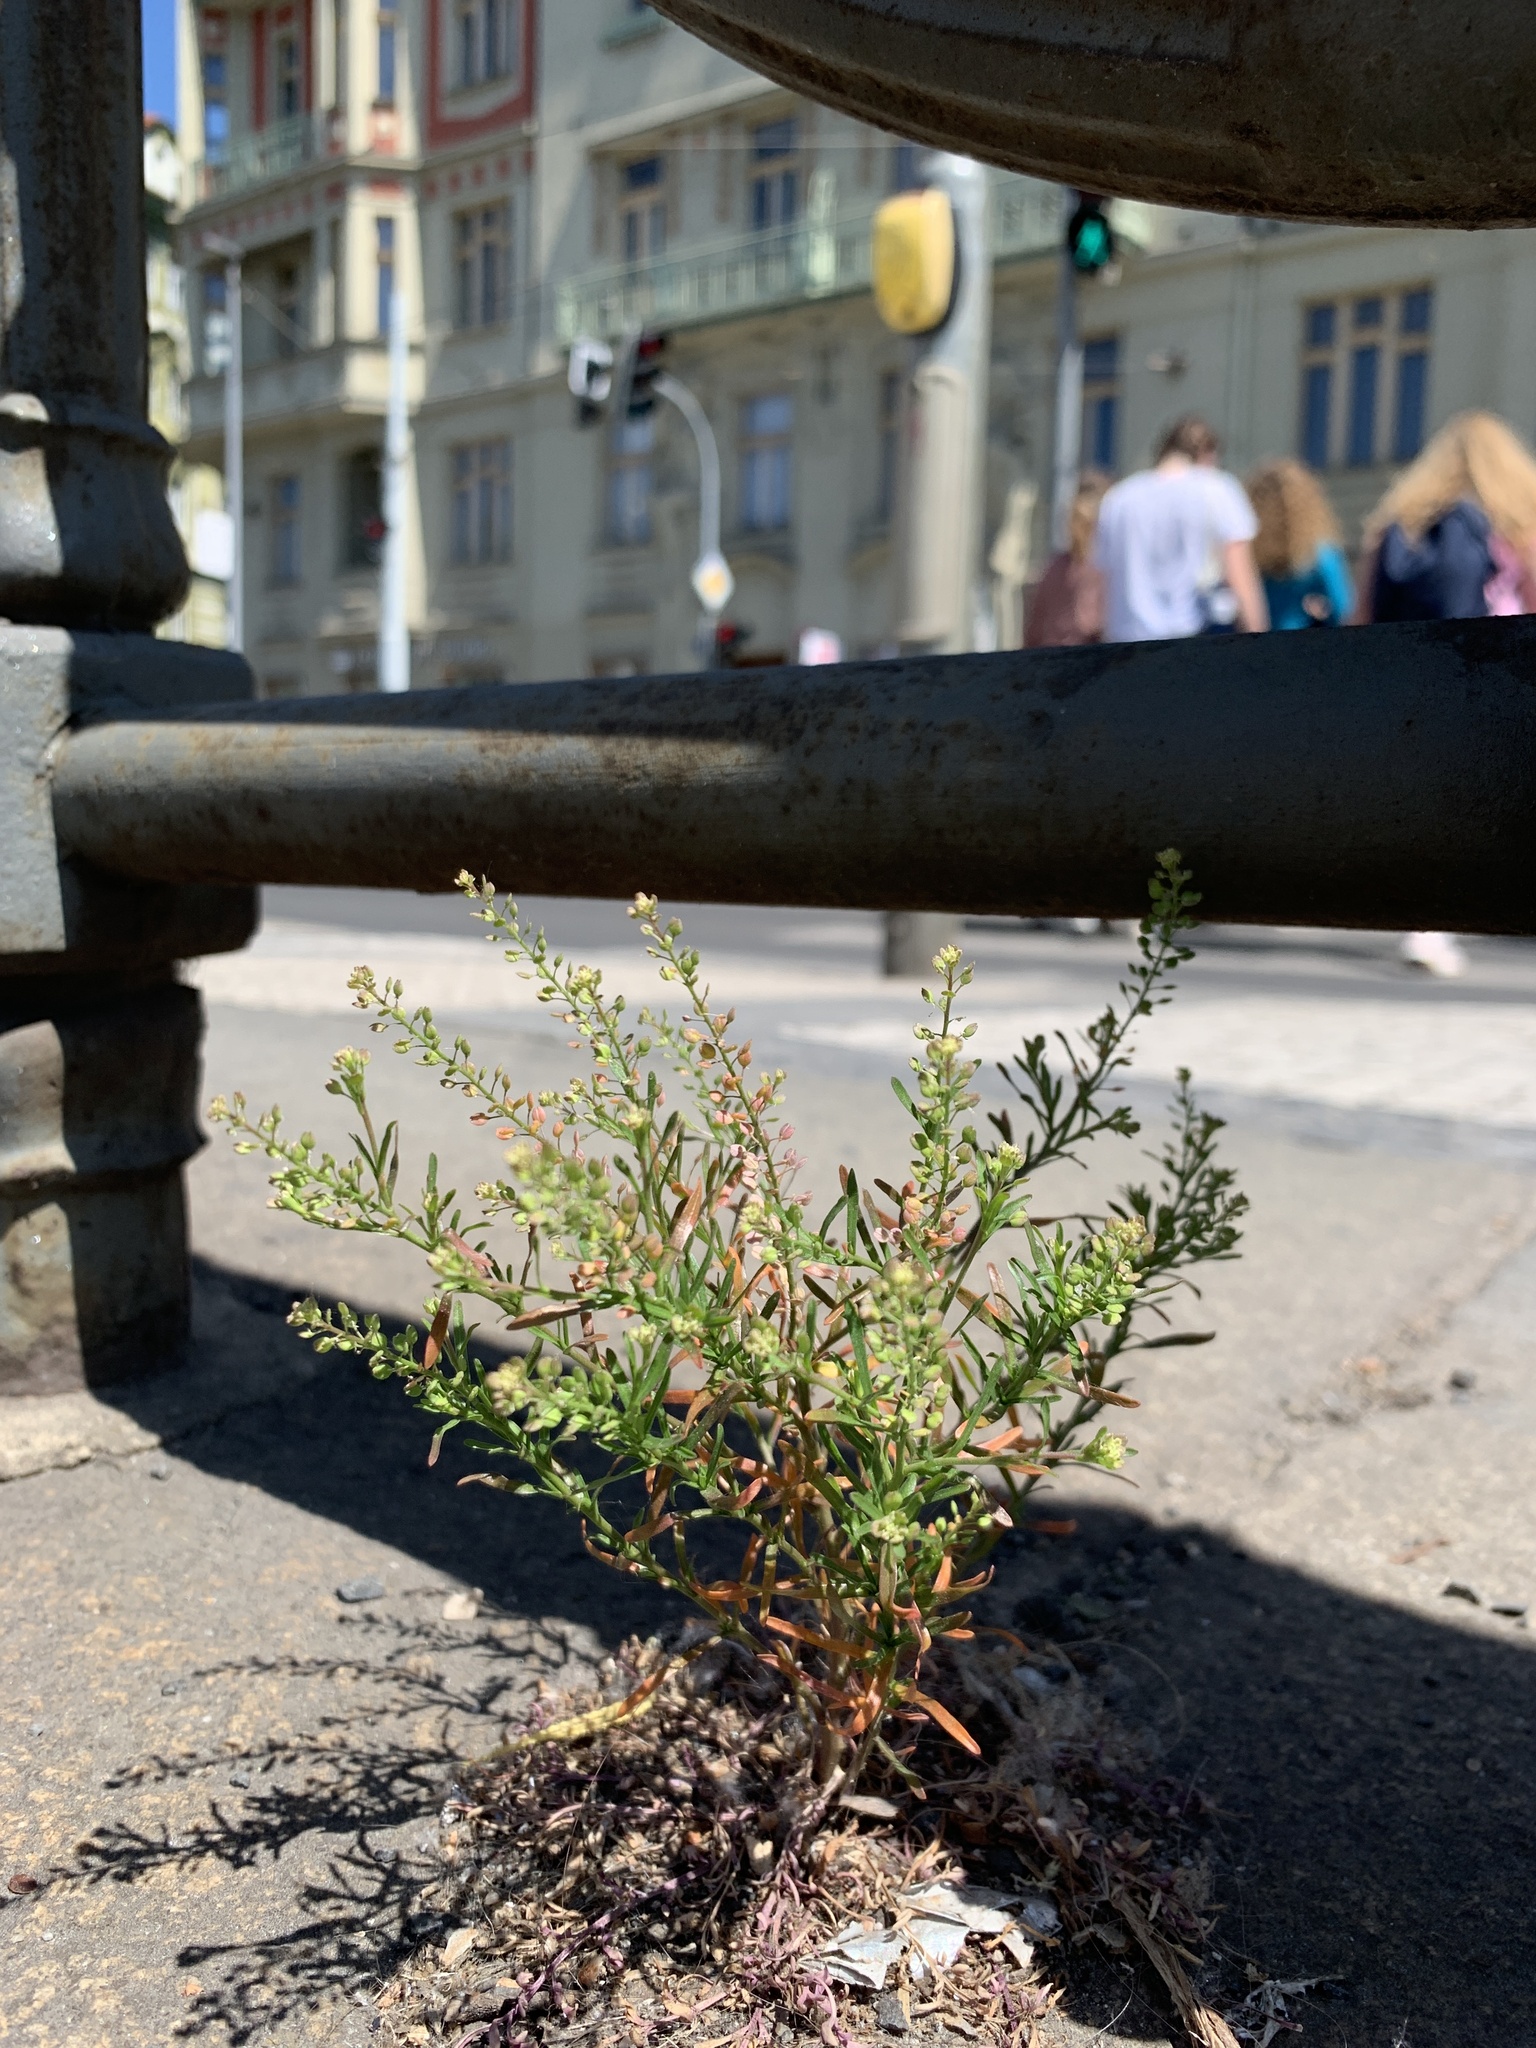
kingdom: Plantae
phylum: Tracheophyta
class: Magnoliopsida
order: Brassicales
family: Brassicaceae
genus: Lepidium
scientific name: Lepidium ruderale
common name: Narrow-leaved pepperwort
